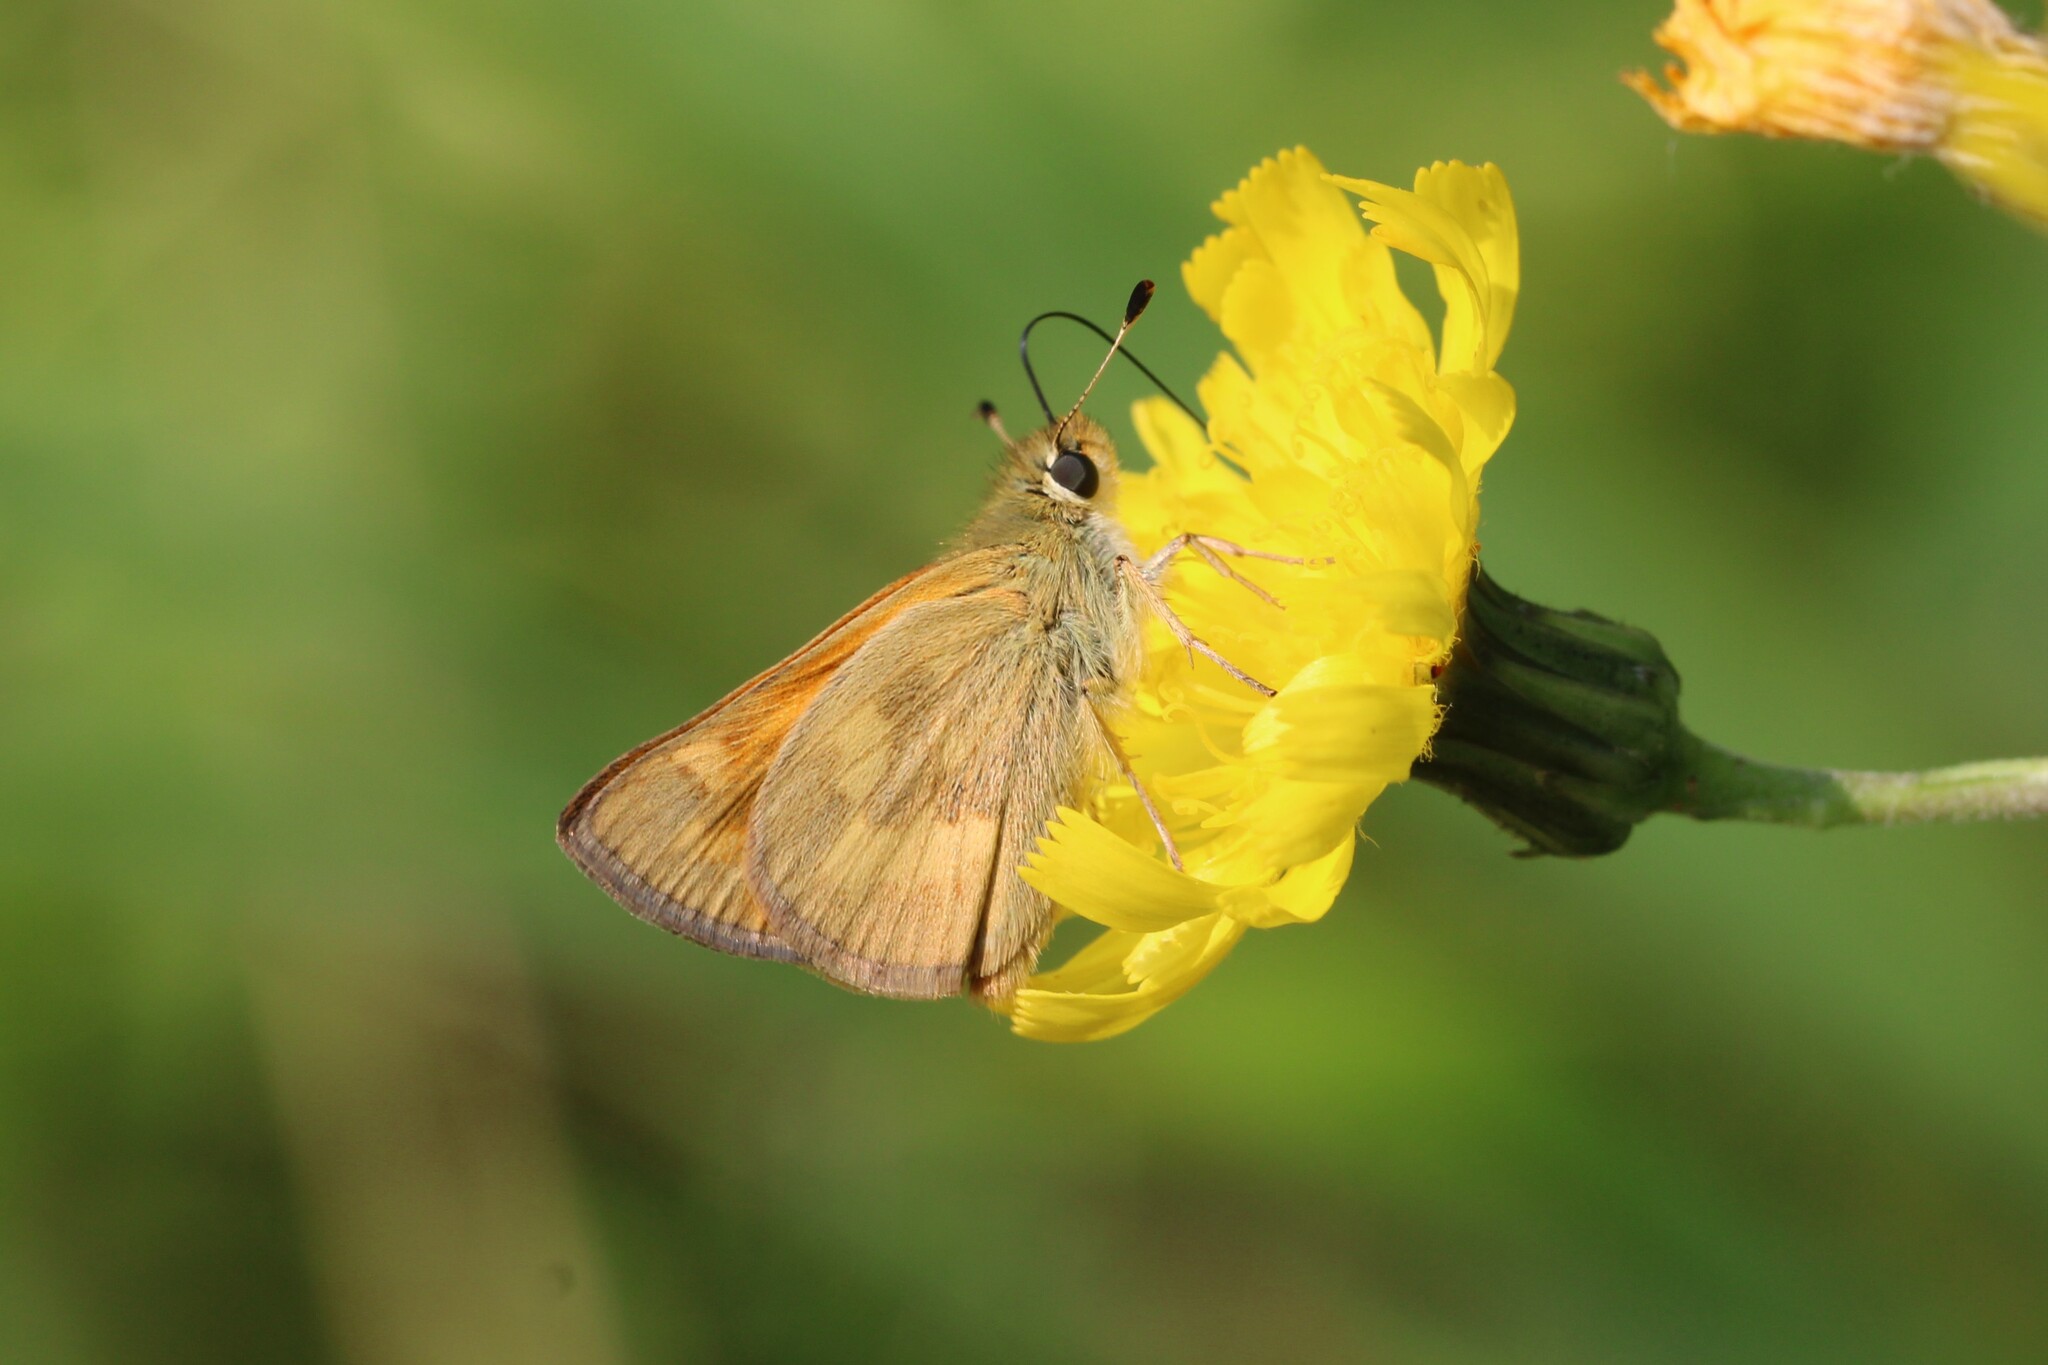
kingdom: Animalia
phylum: Arthropoda
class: Insecta
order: Lepidoptera
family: Hesperiidae
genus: Ochlodes
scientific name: Ochlodes sylvanoides
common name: Woodland skipper
